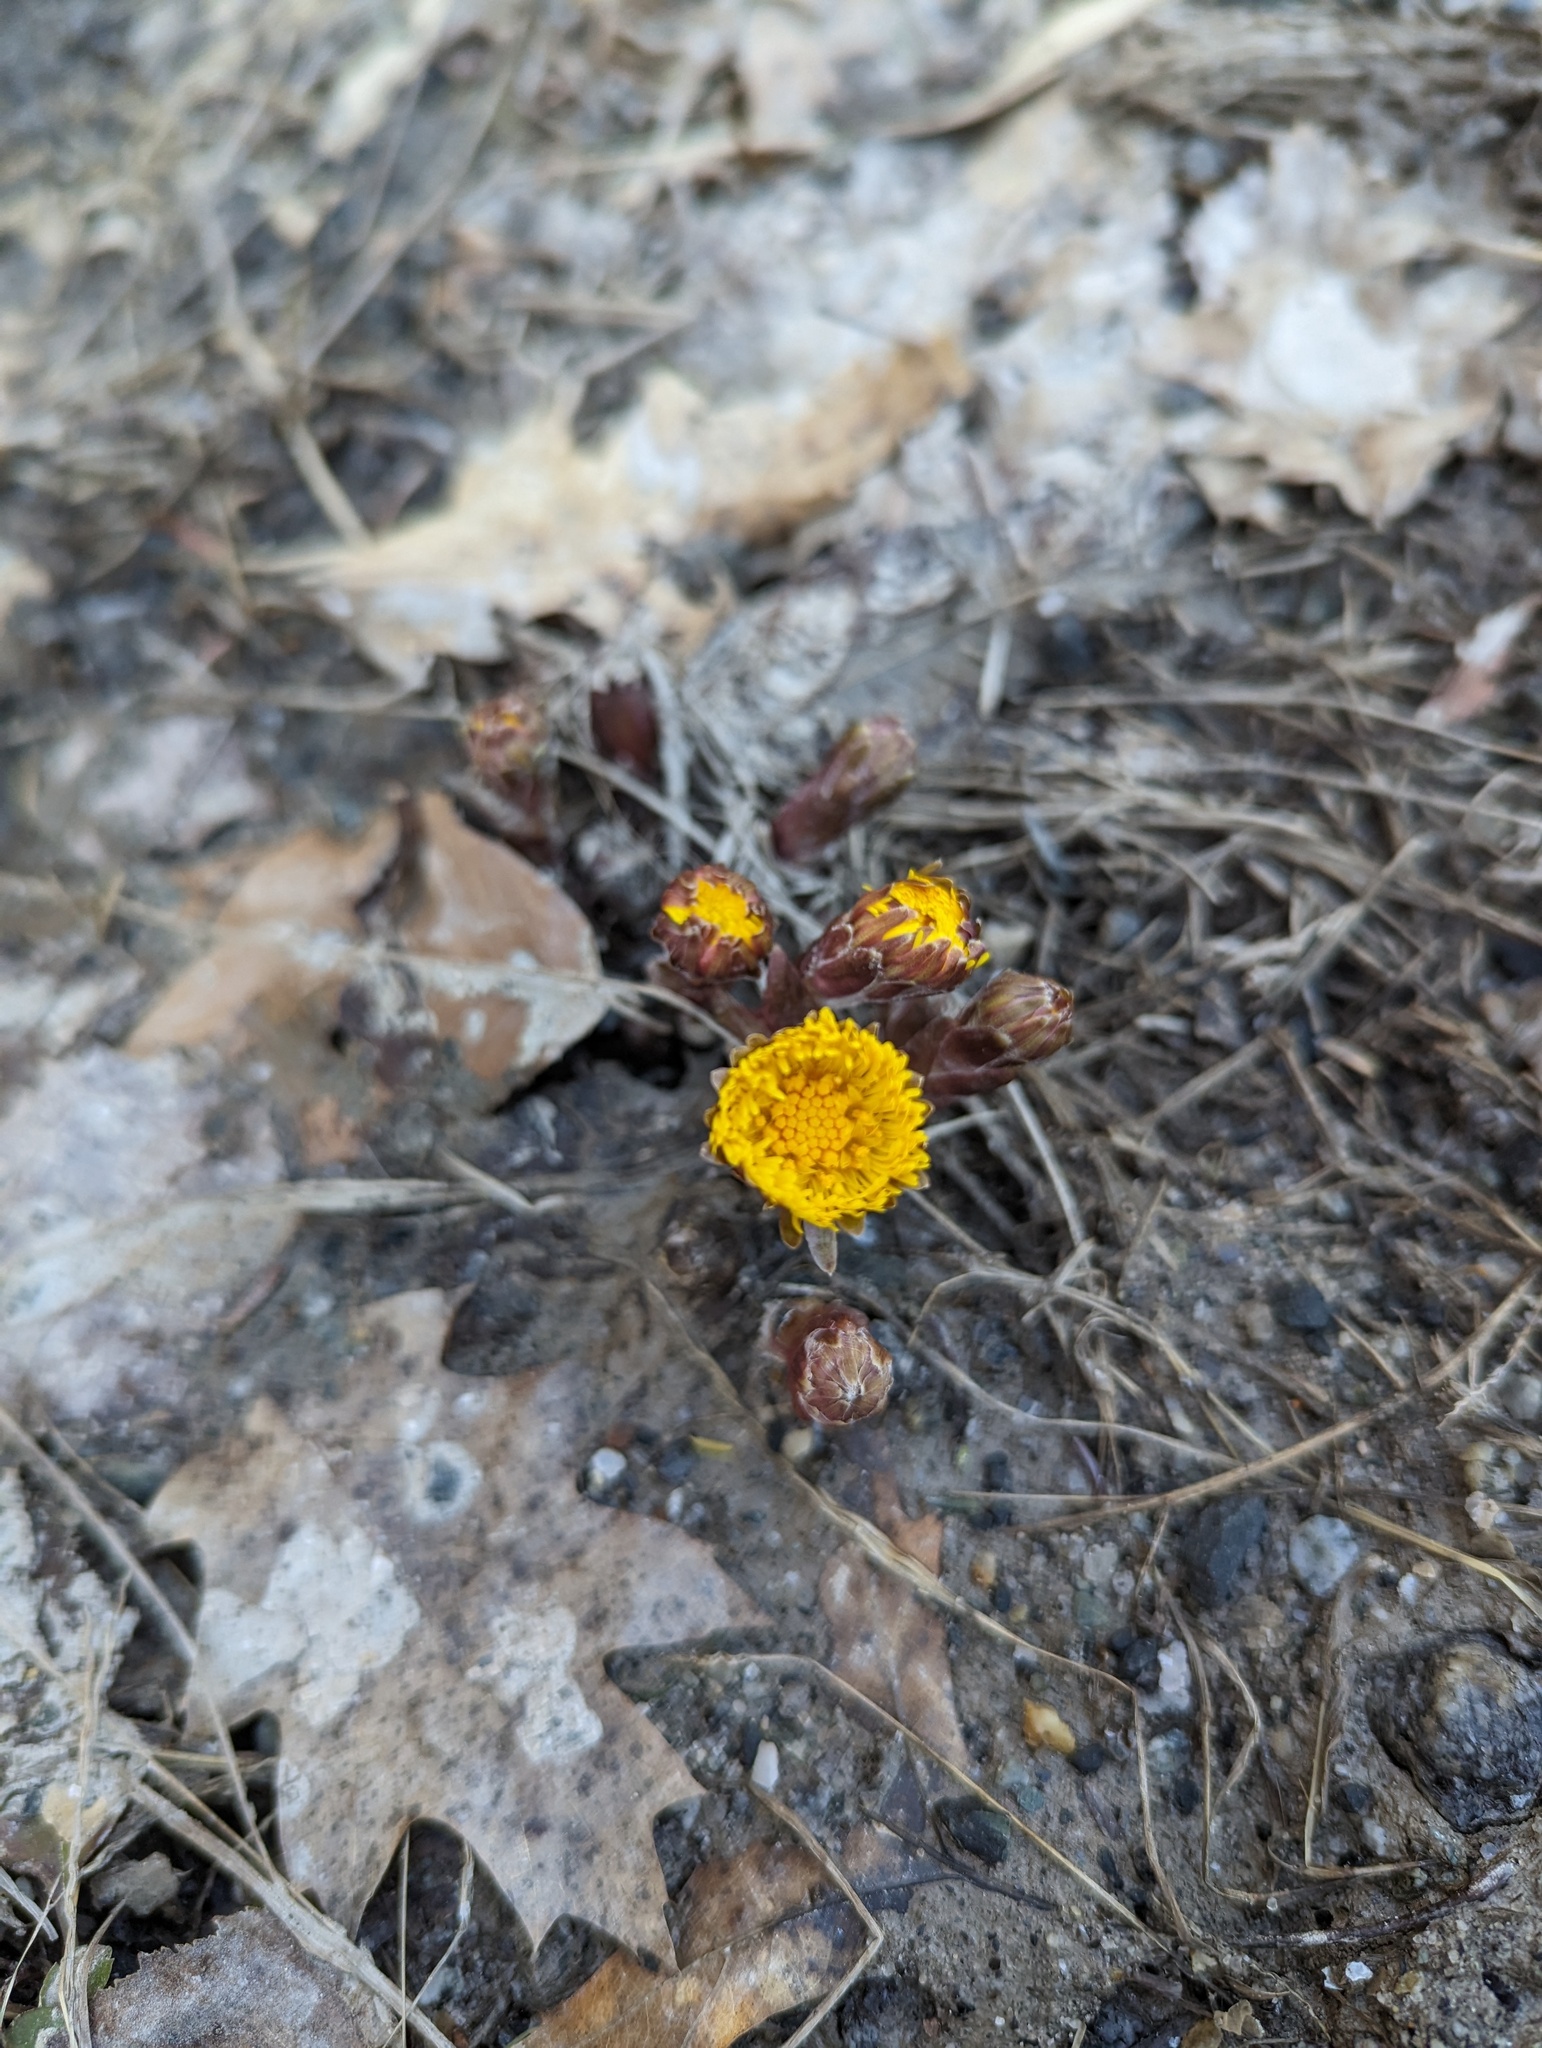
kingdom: Plantae
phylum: Tracheophyta
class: Magnoliopsida
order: Asterales
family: Asteraceae
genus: Tussilago
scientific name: Tussilago farfara
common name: Coltsfoot
